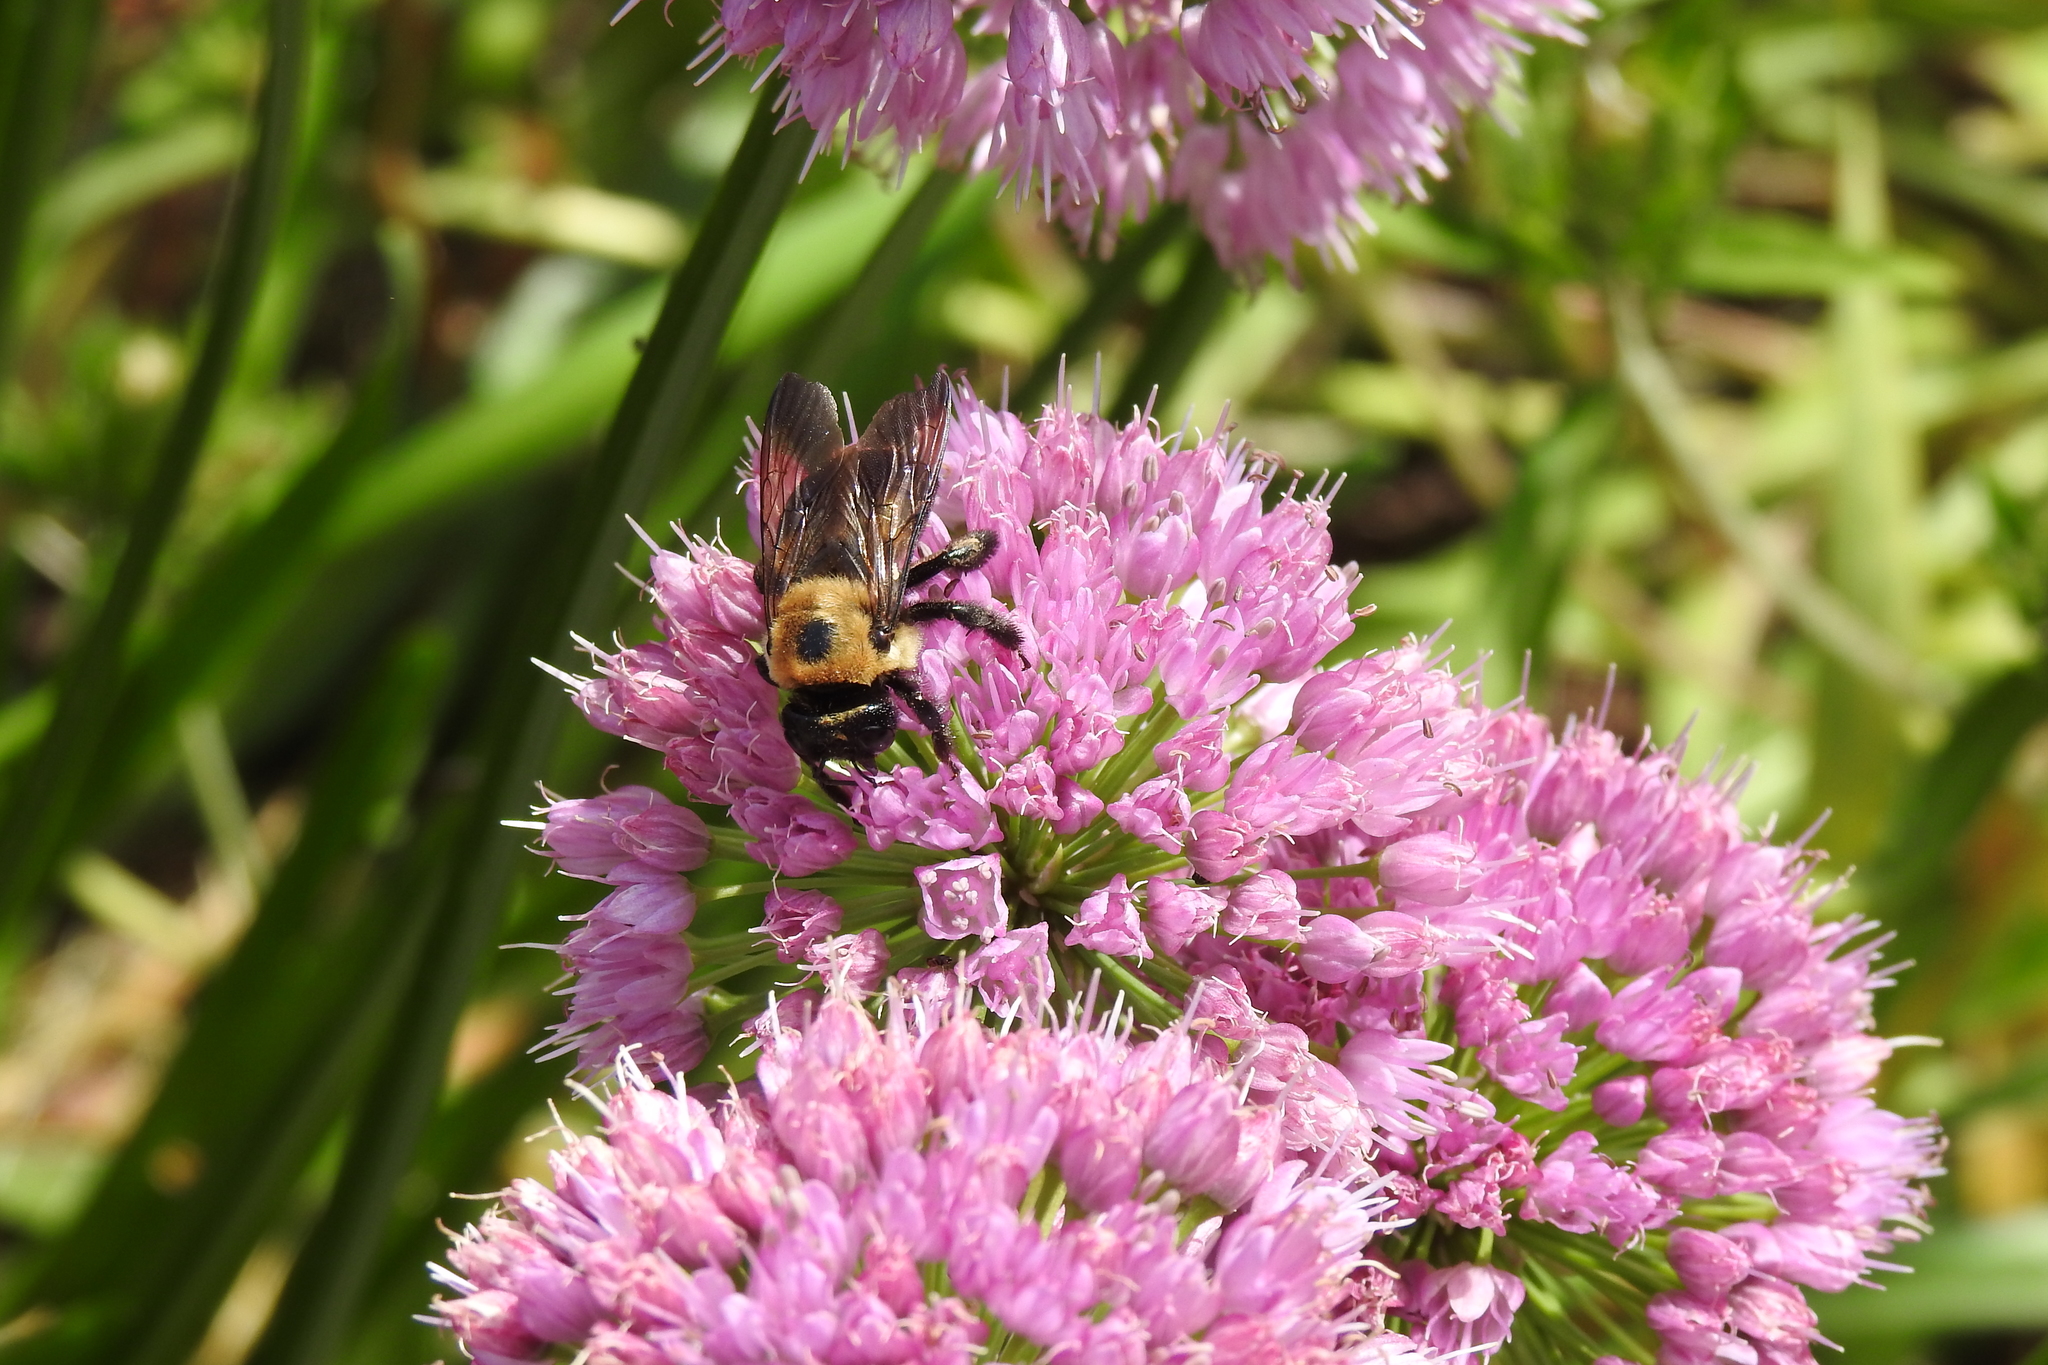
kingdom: Animalia
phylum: Arthropoda
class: Insecta
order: Hymenoptera
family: Apidae
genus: Xylocopa
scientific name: Xylocopa virginica
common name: Carpenter bee
